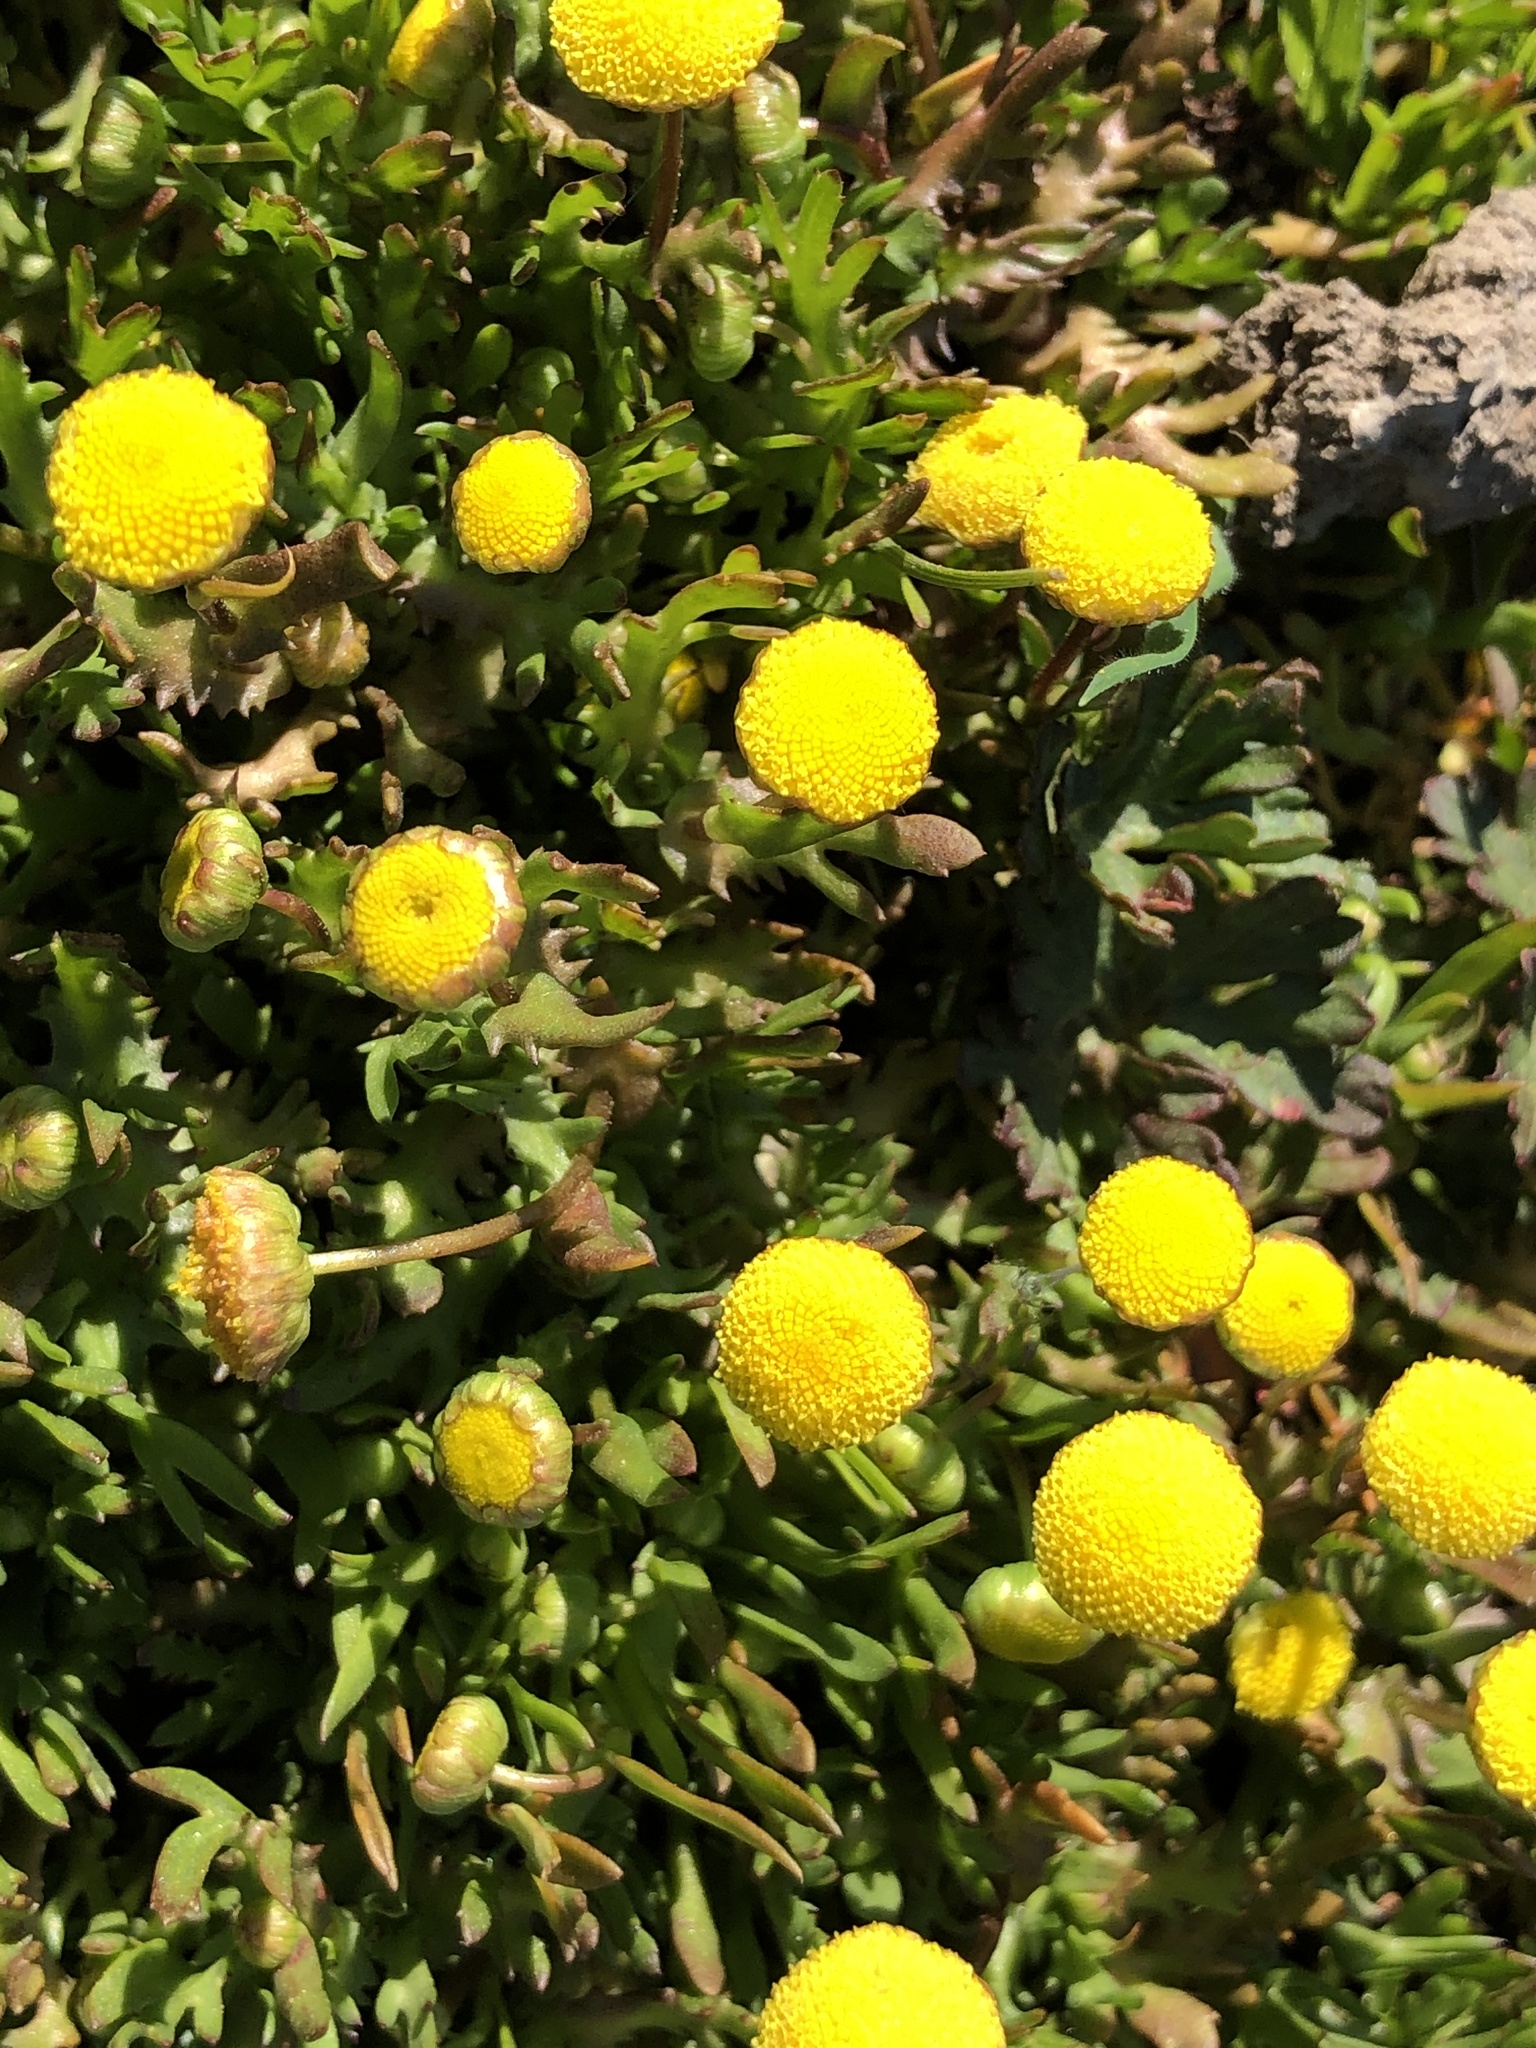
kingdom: Plantae
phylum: Tracheophyta
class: Magnoliopsida
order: Asterales
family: Asteraceae
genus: Cotula
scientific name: Cotula coronopifolia
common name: Buttonweed
